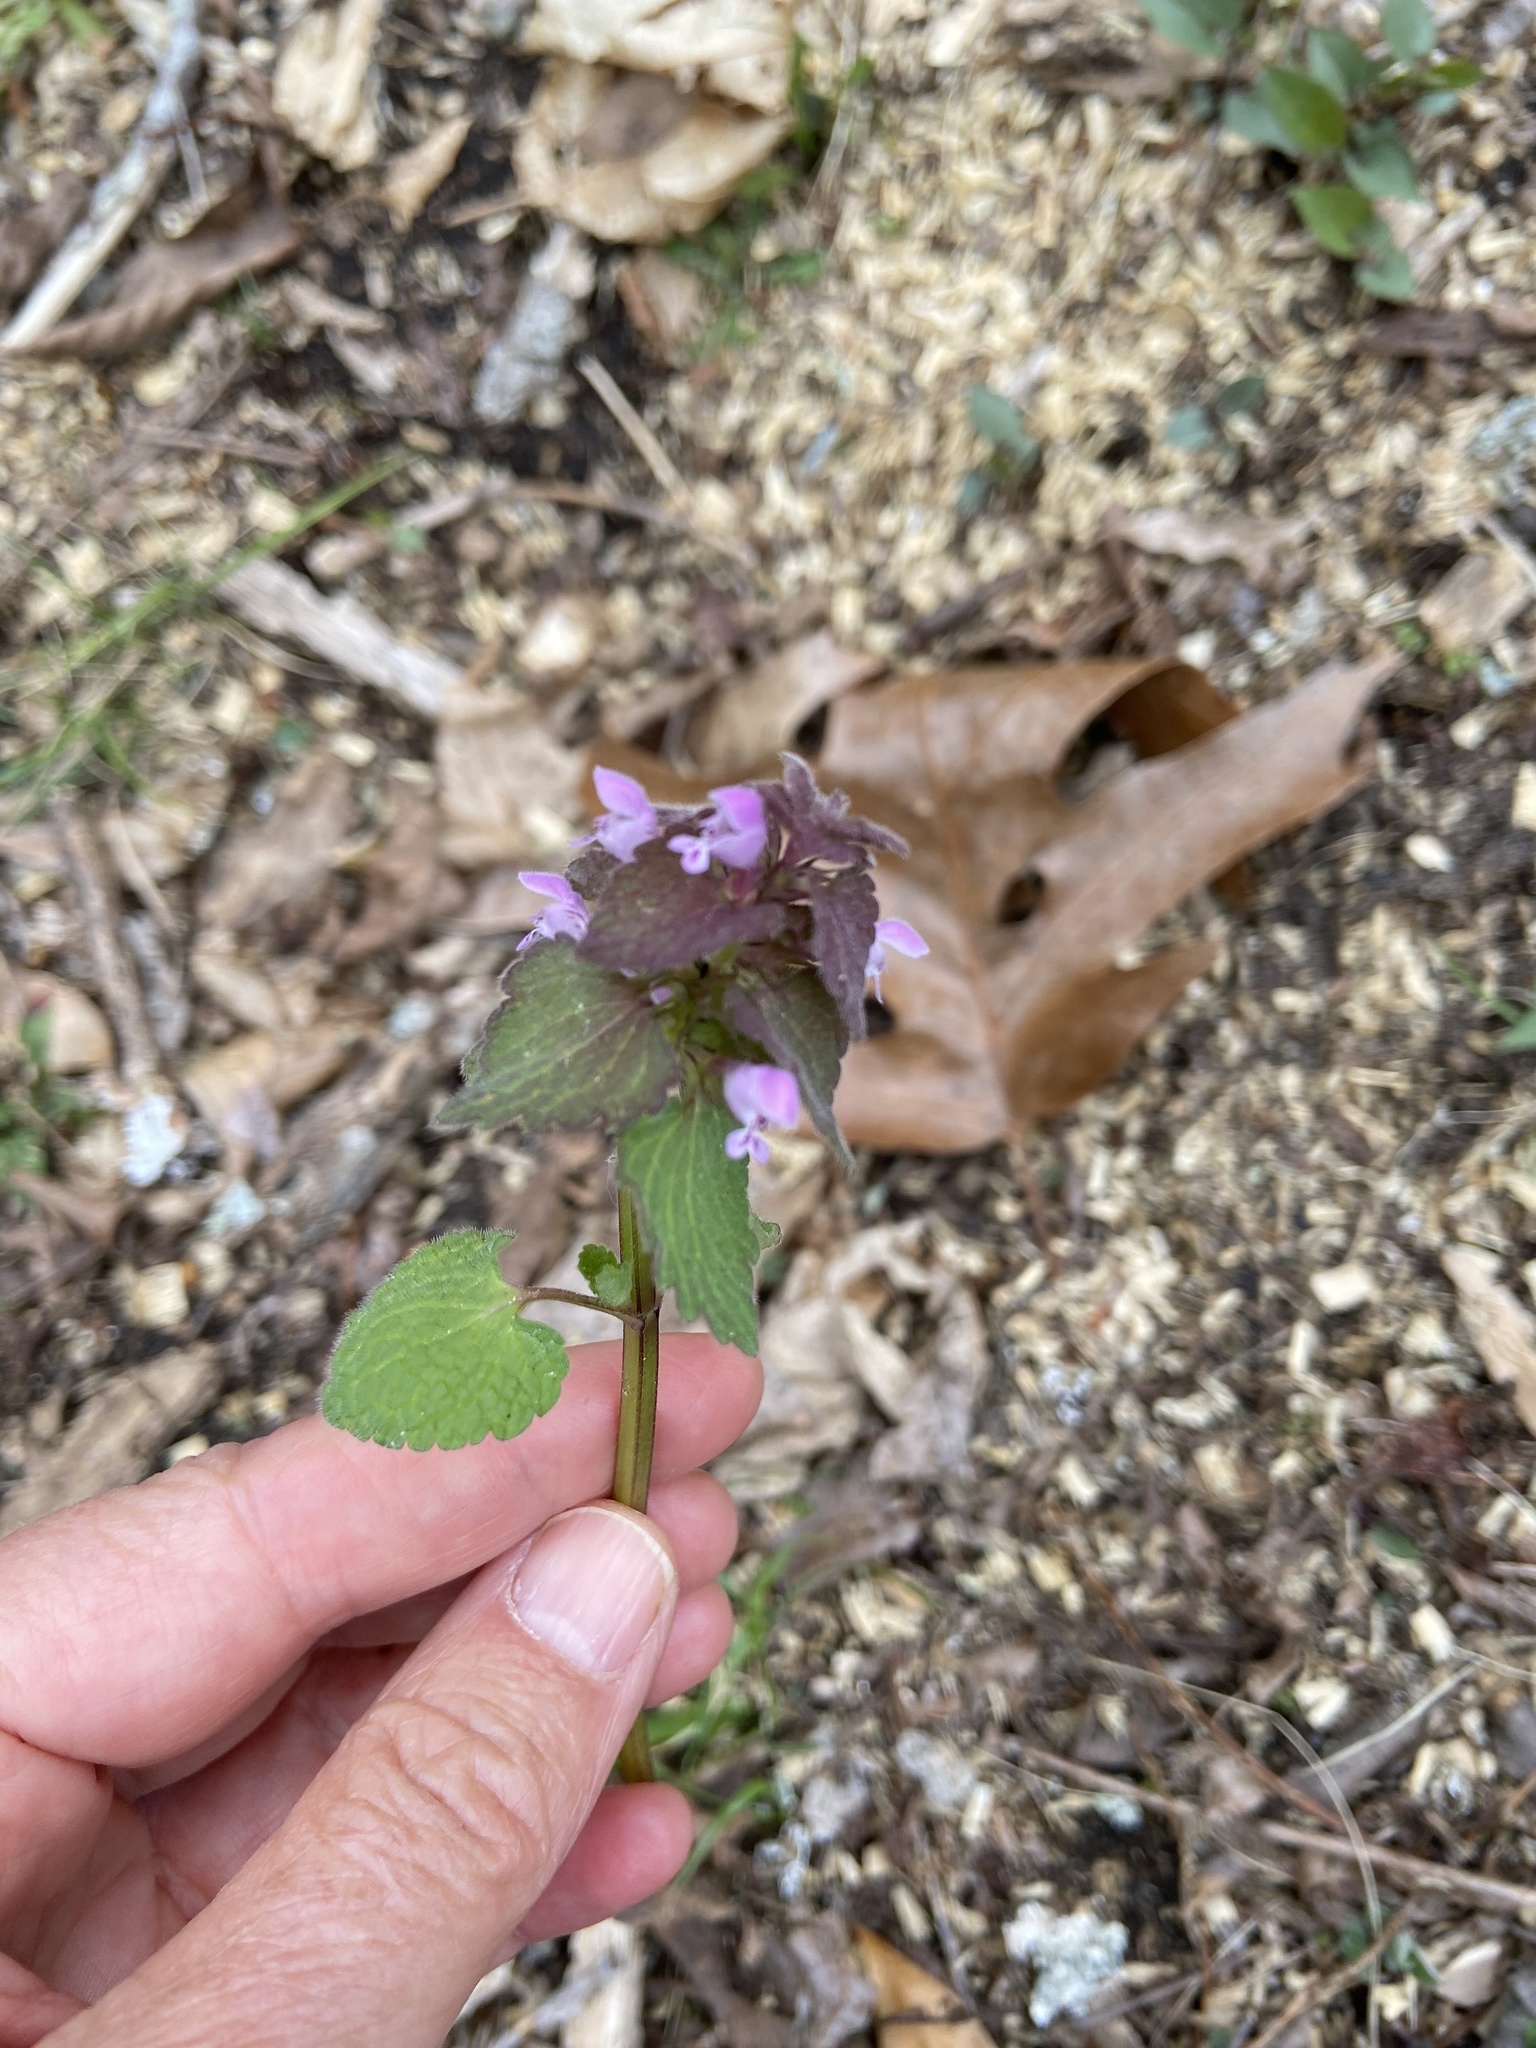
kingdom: Plantae
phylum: Tracheophyta
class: Magnoliopsida
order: Lamiales
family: Lamiaceae
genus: Lamium
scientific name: Lamium purpureum
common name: Red dead-nettle
